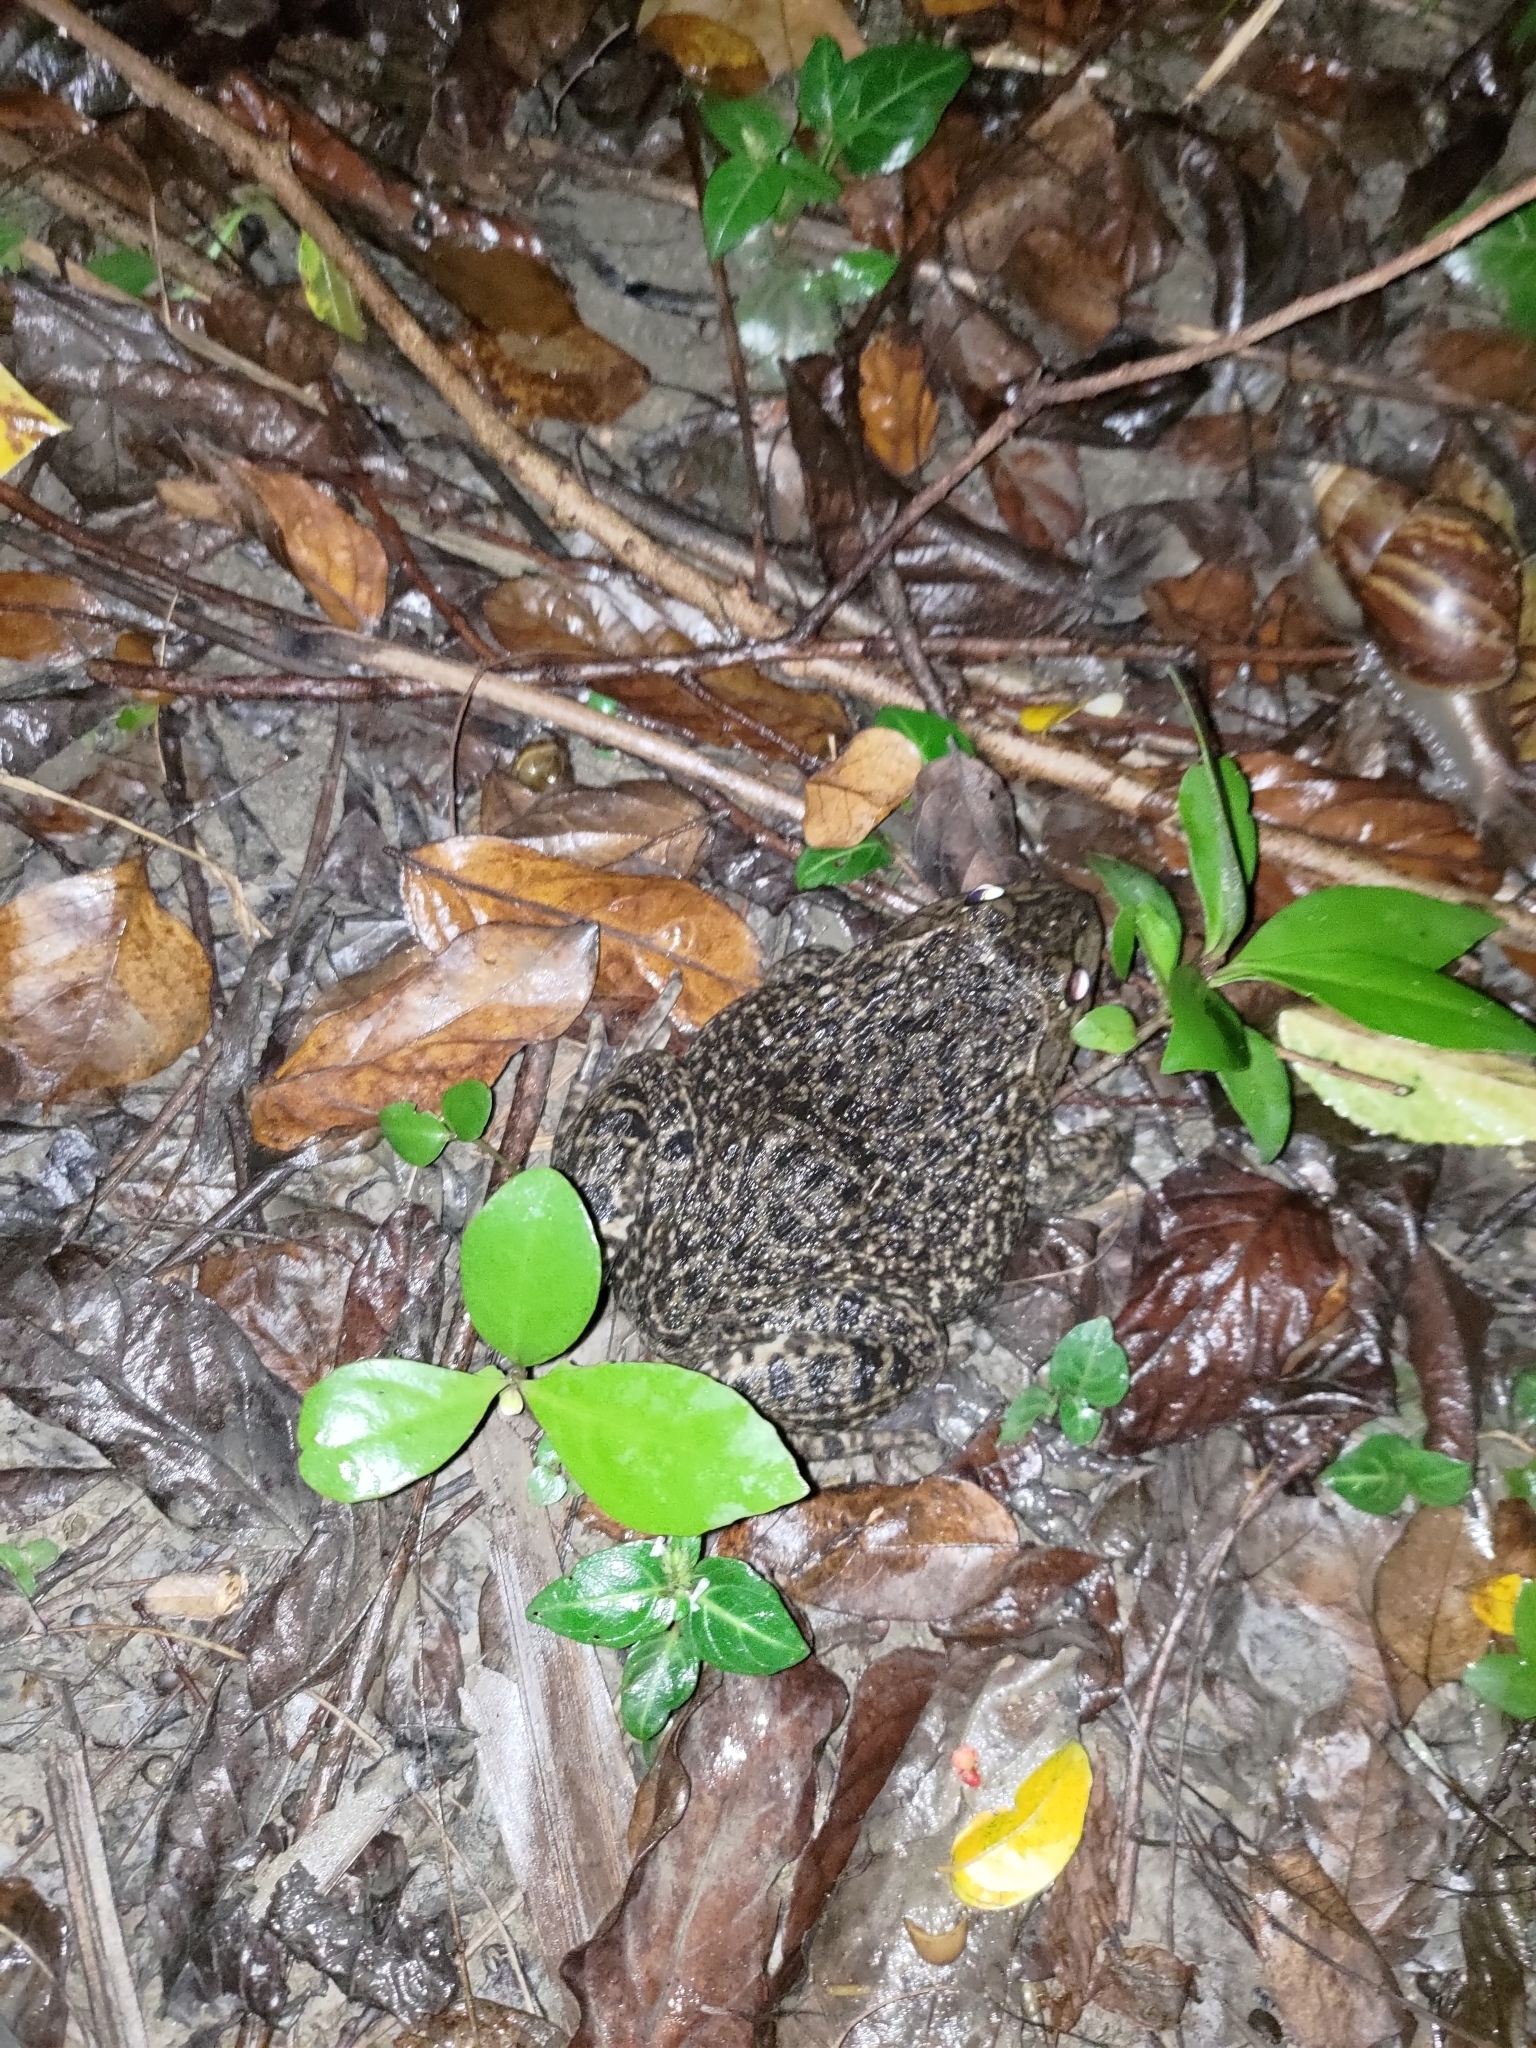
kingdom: Animalia
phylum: Chordata
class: Amphibia
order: Anura
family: Dicroglossidae
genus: Hoplobatrachus
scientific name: Hoplobatrachus rugulosus
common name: Chinese edible frog
